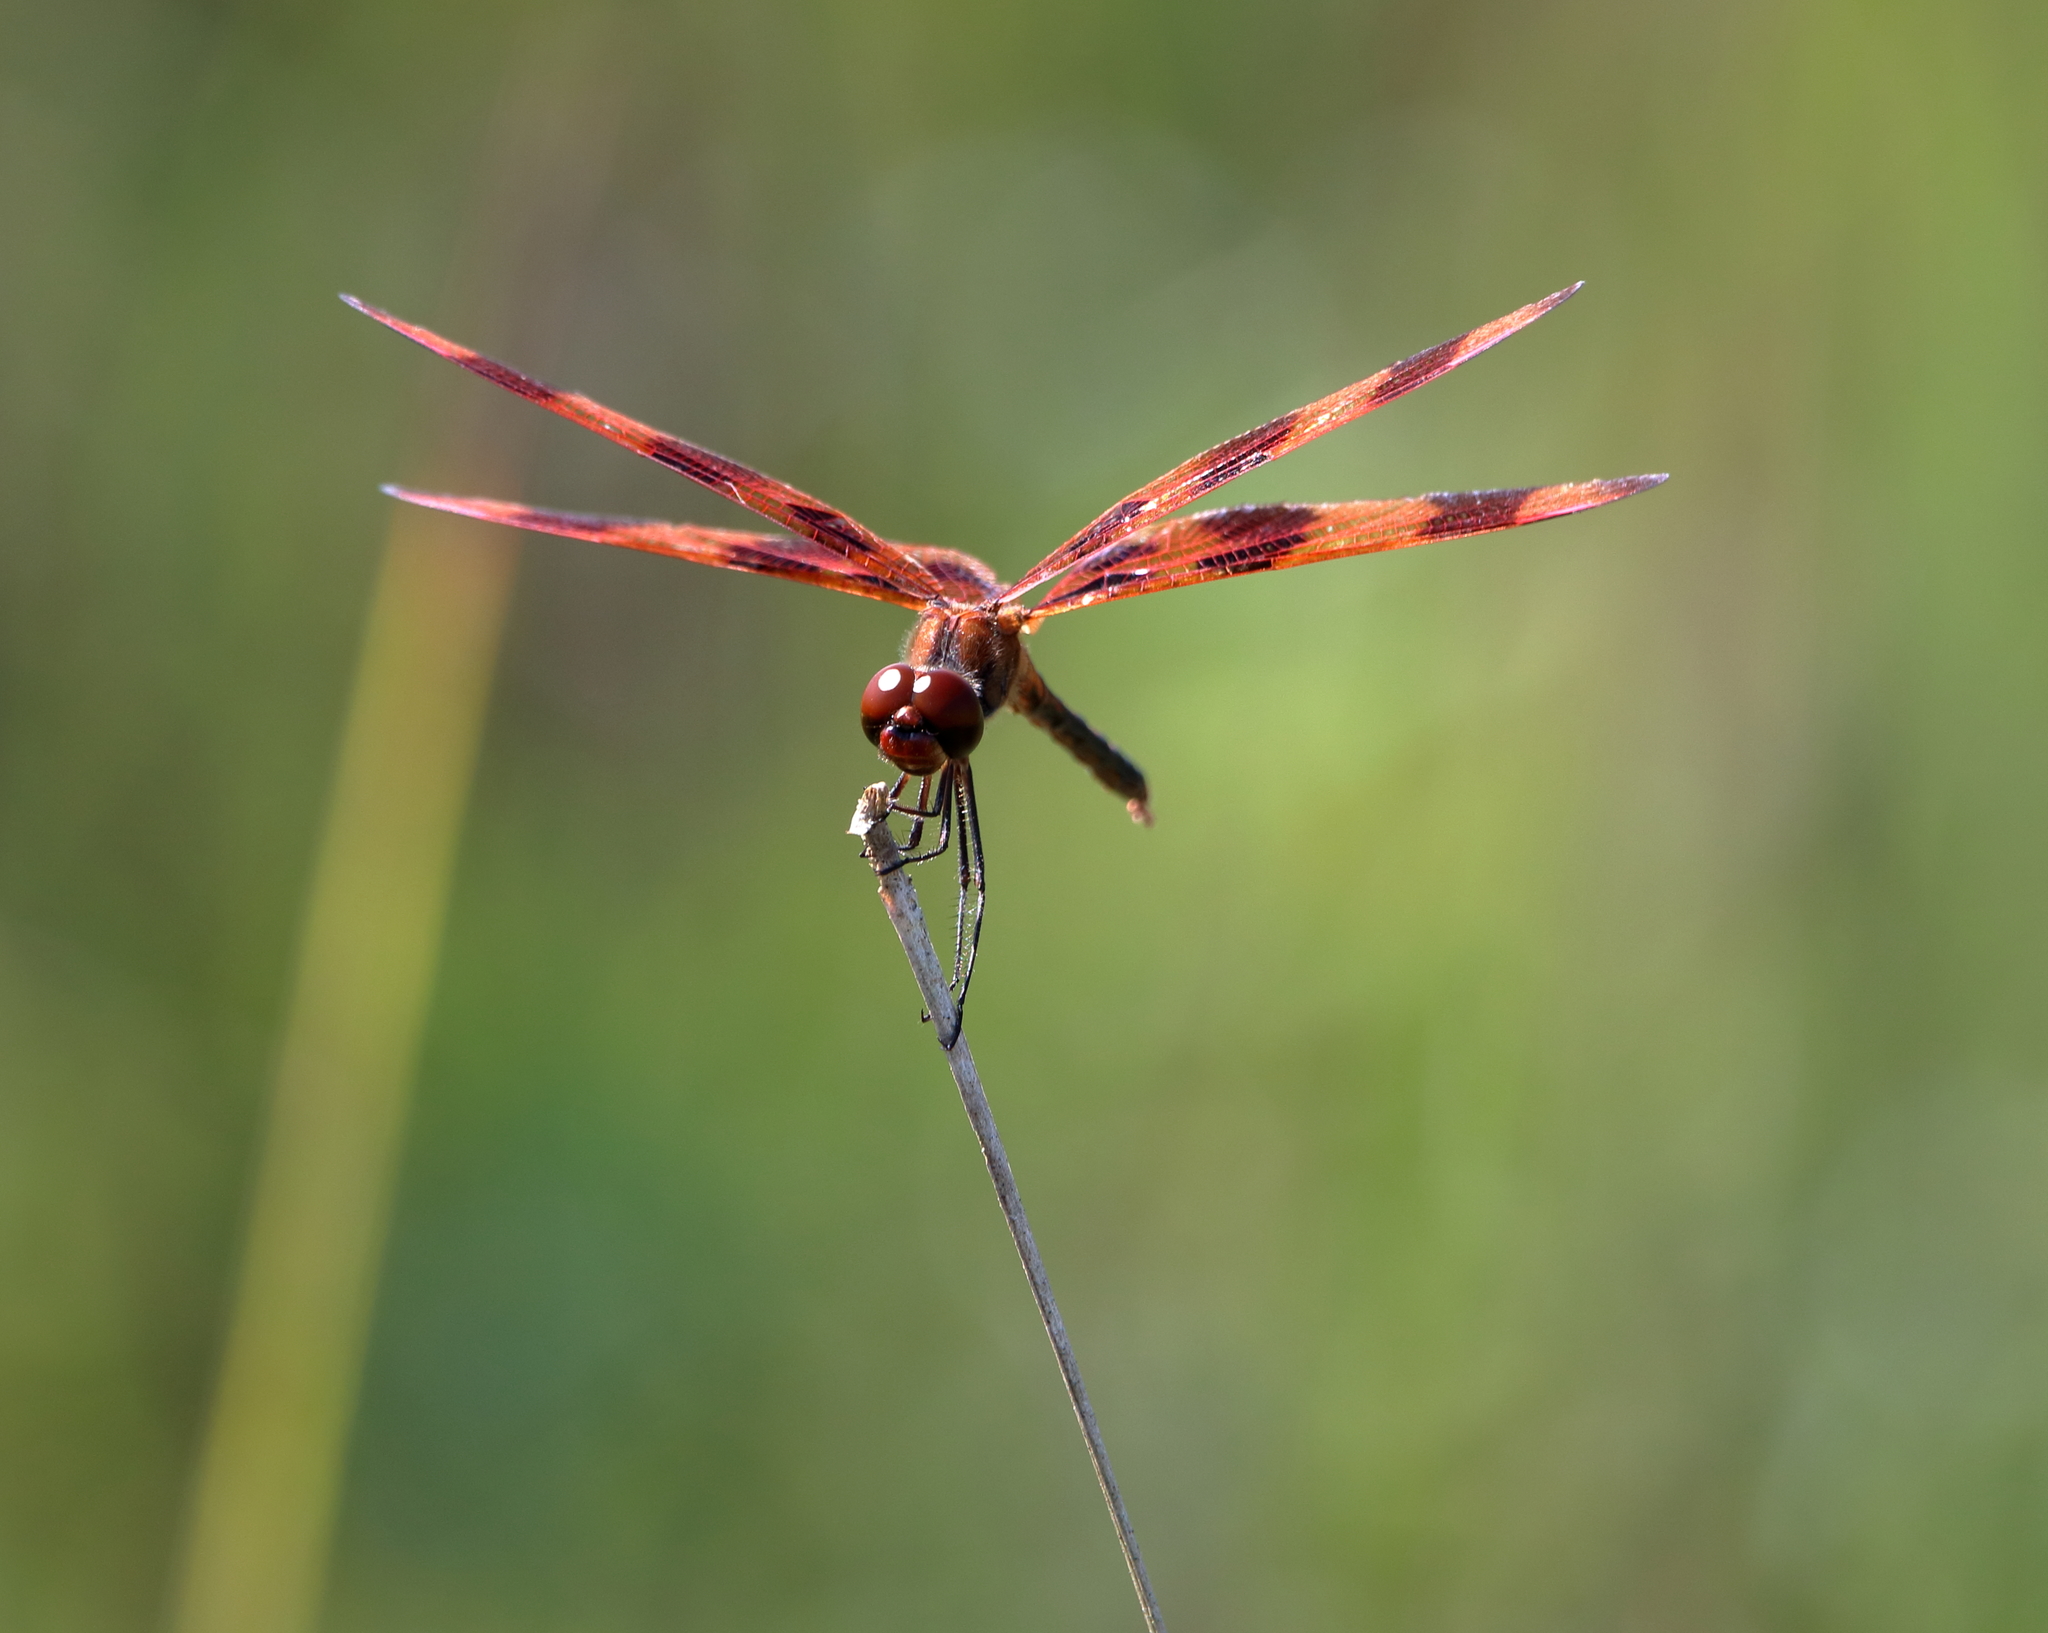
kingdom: Animalia
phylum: Arthropoda
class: Insecta
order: Odonata
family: Libellulidae
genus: Celithemis
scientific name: Celithemis eponina
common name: Halloween pennant
